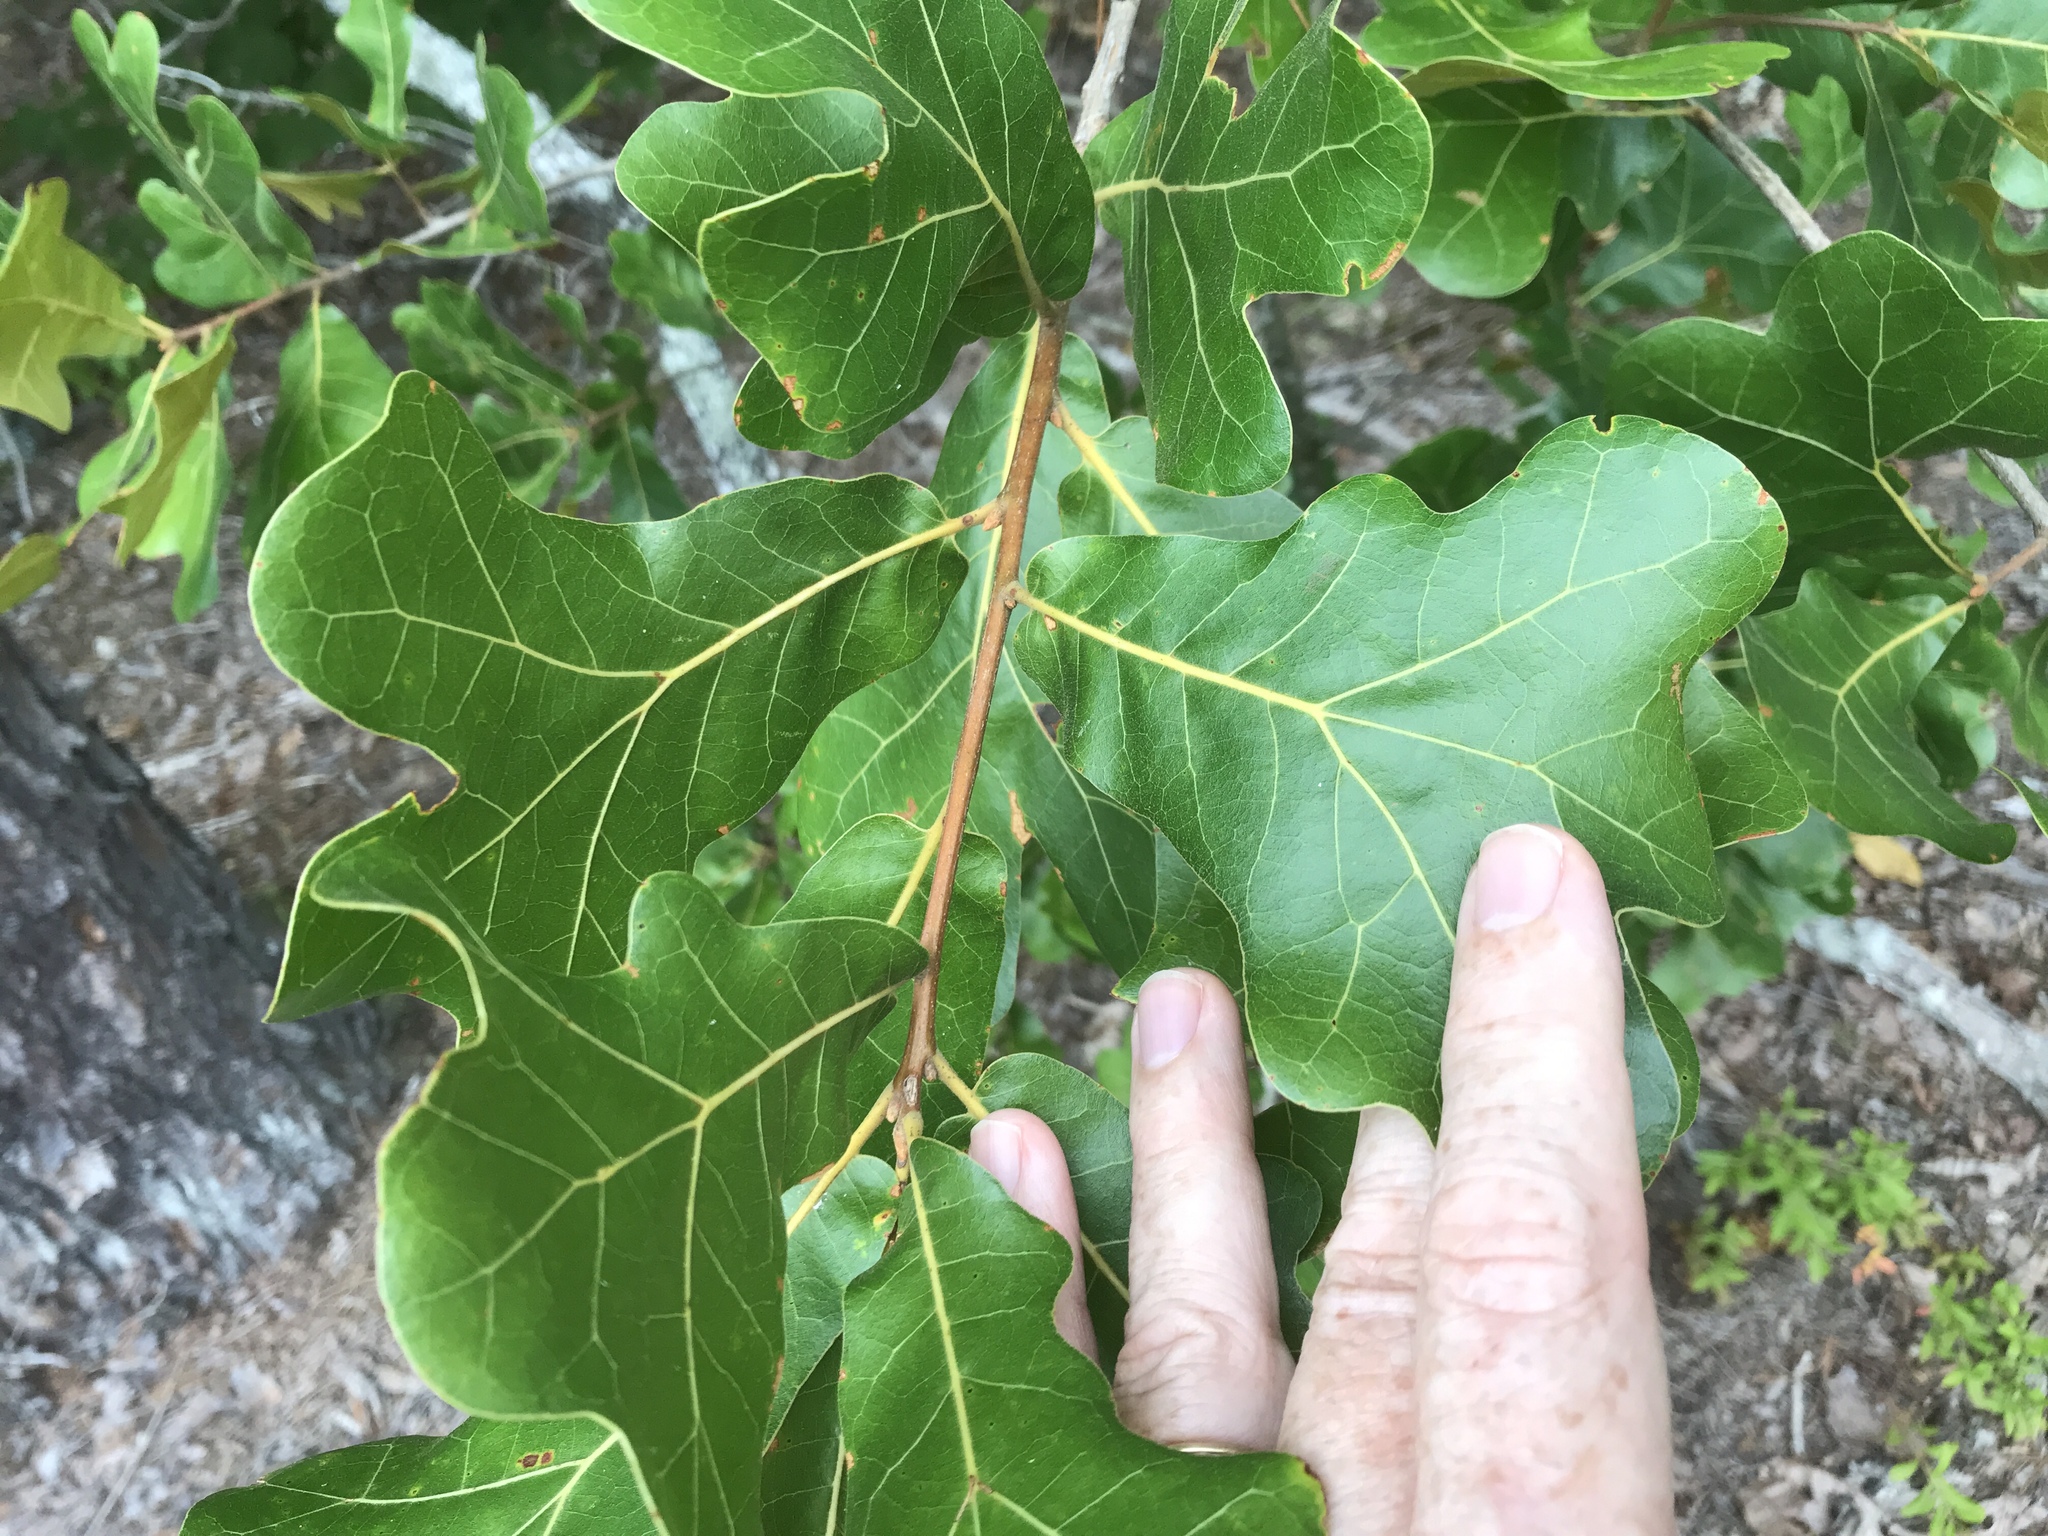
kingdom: Plantae
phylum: Tracheophyta
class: Magnoliopsida
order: Fagales
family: Fagaceae
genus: Quercus
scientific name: Quercus marilandica
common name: Blackjack oak
